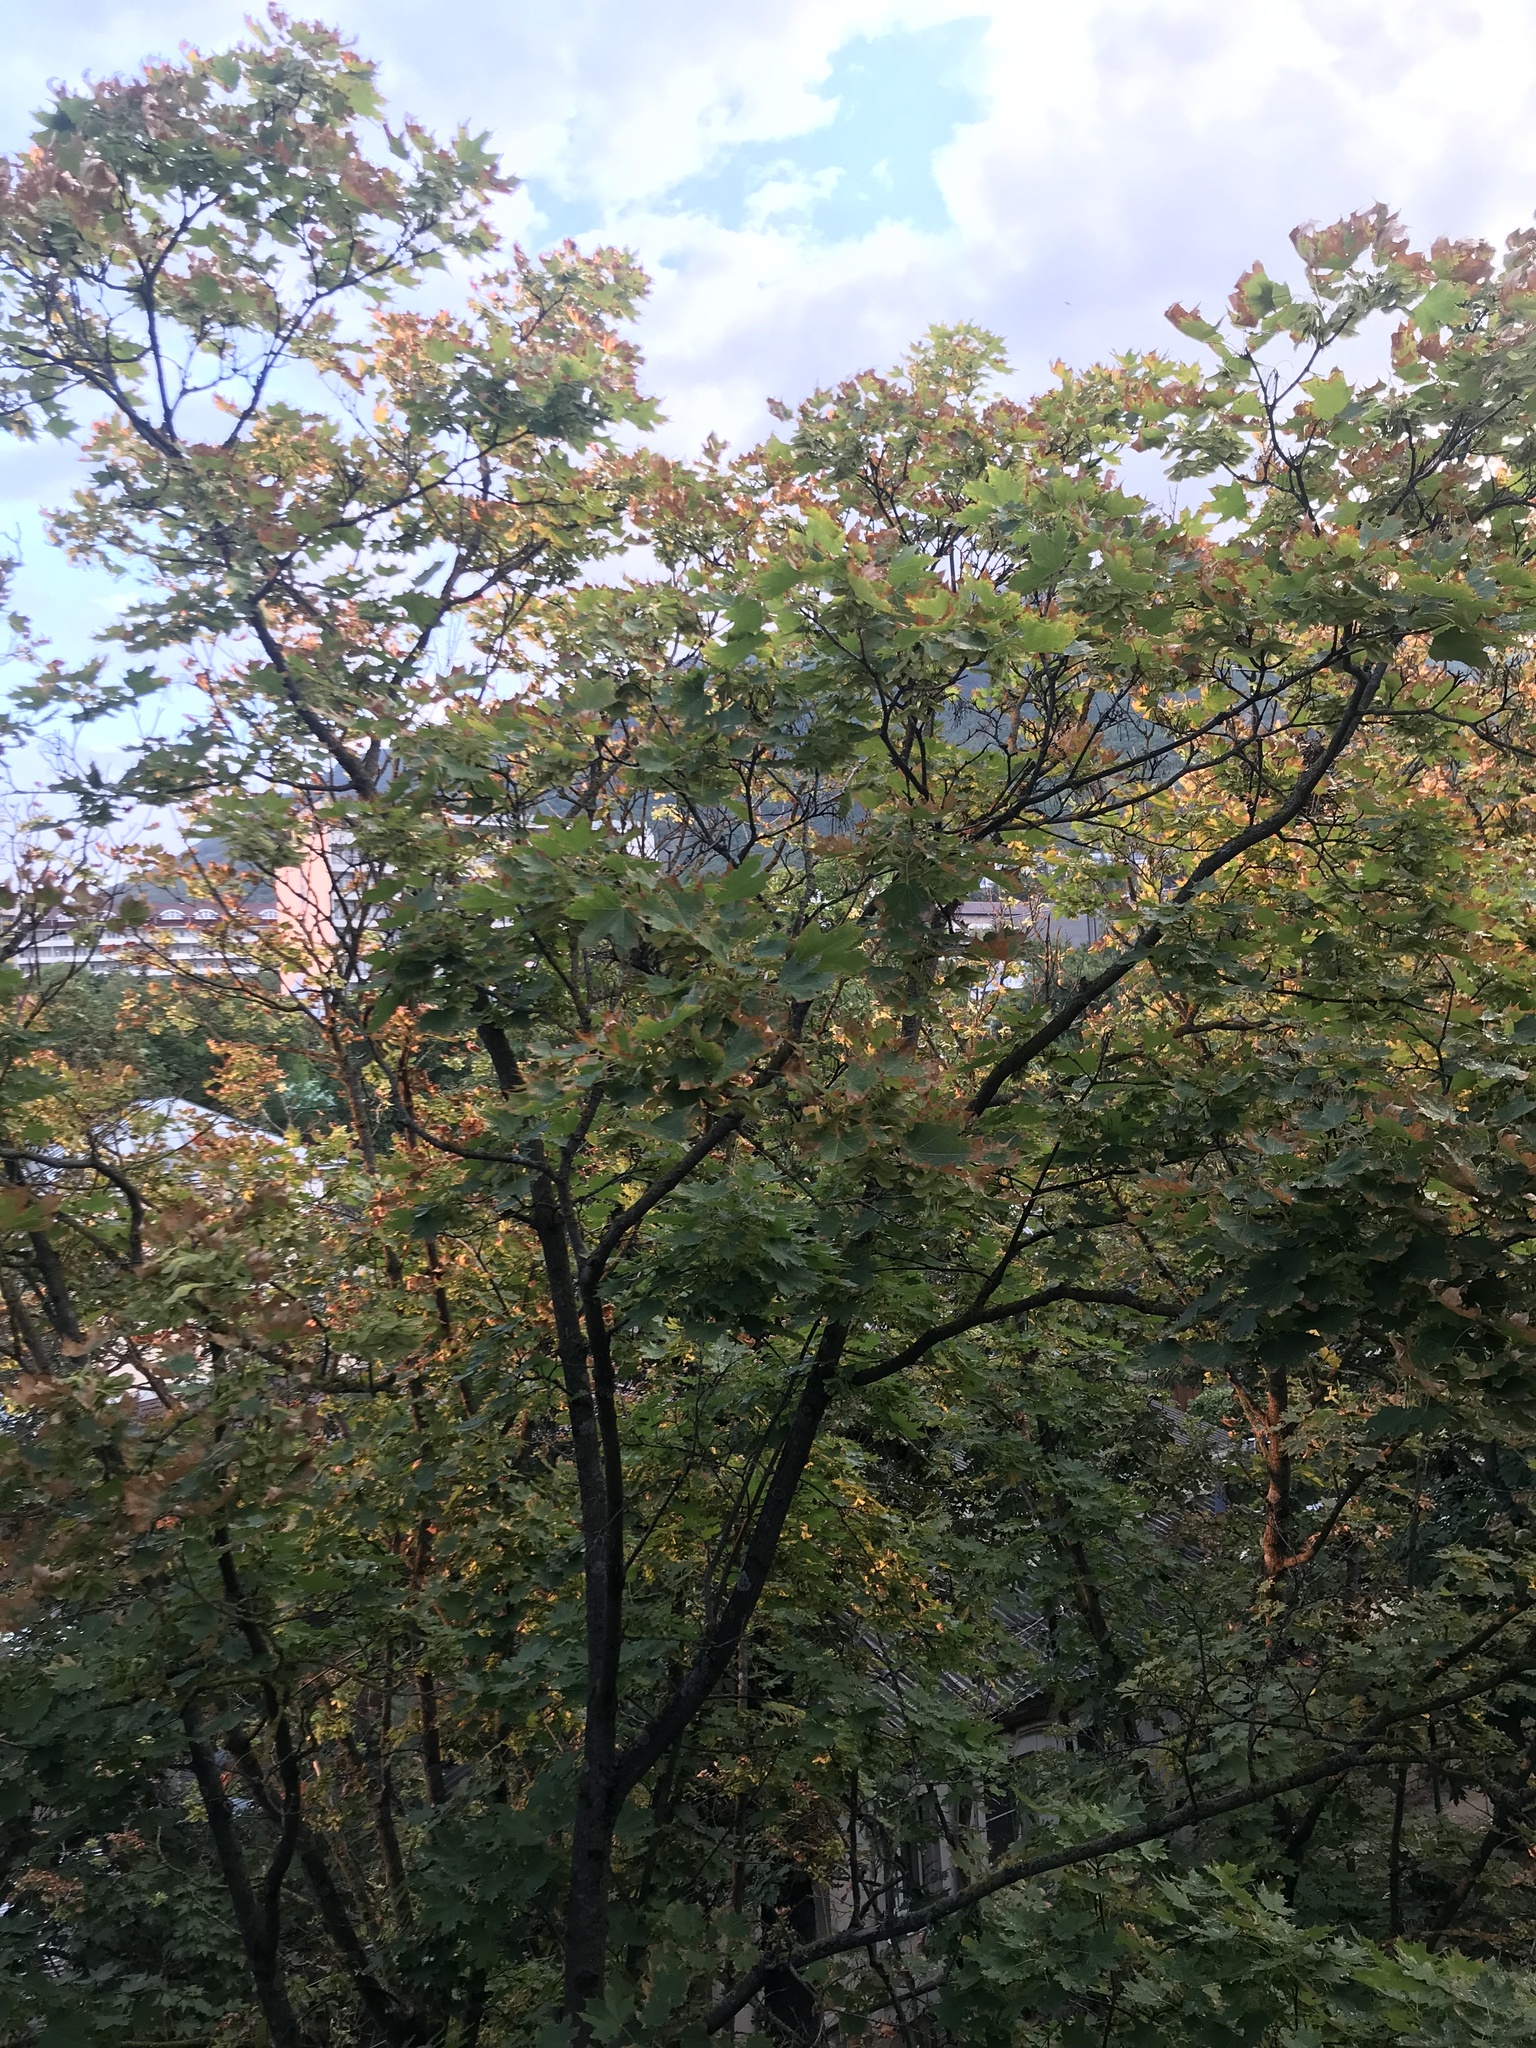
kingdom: Plantae
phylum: Tracheophyta
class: Magnoliopsida
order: Sapindales
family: Sapindaceae
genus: Acer
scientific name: Acer platanoides
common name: Norway maple
